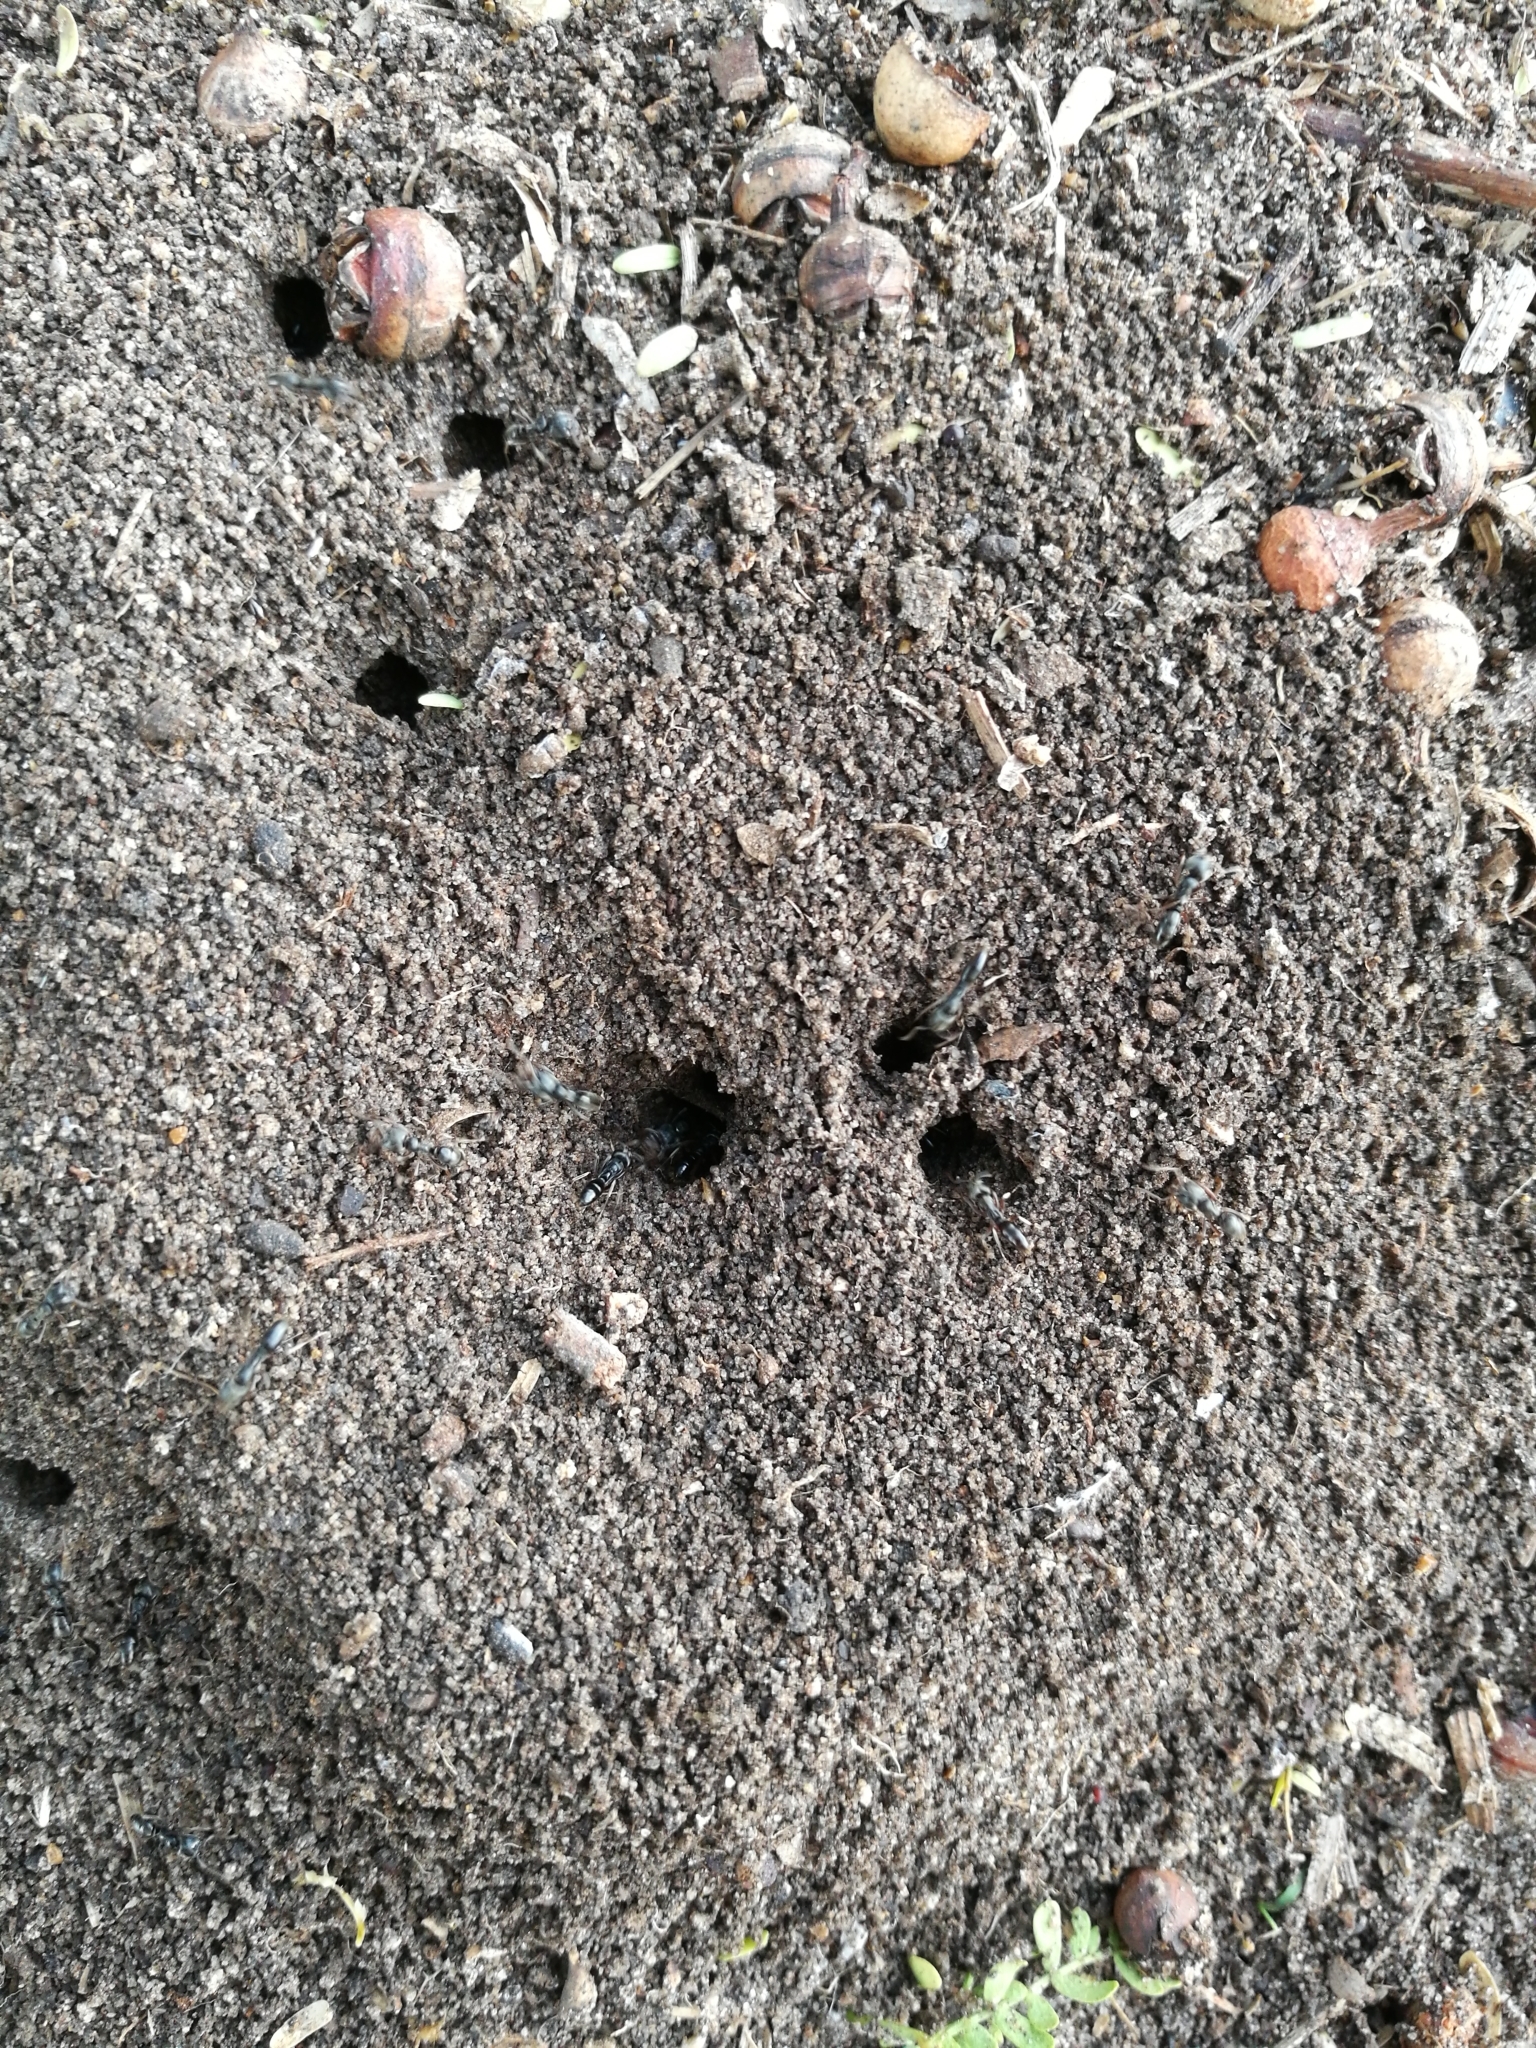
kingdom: Animalia
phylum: Arthropoda
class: Insecta
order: Hymenoptera
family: Formicidae
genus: Pachycondyla
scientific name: Pachycondyla sennaarensis
